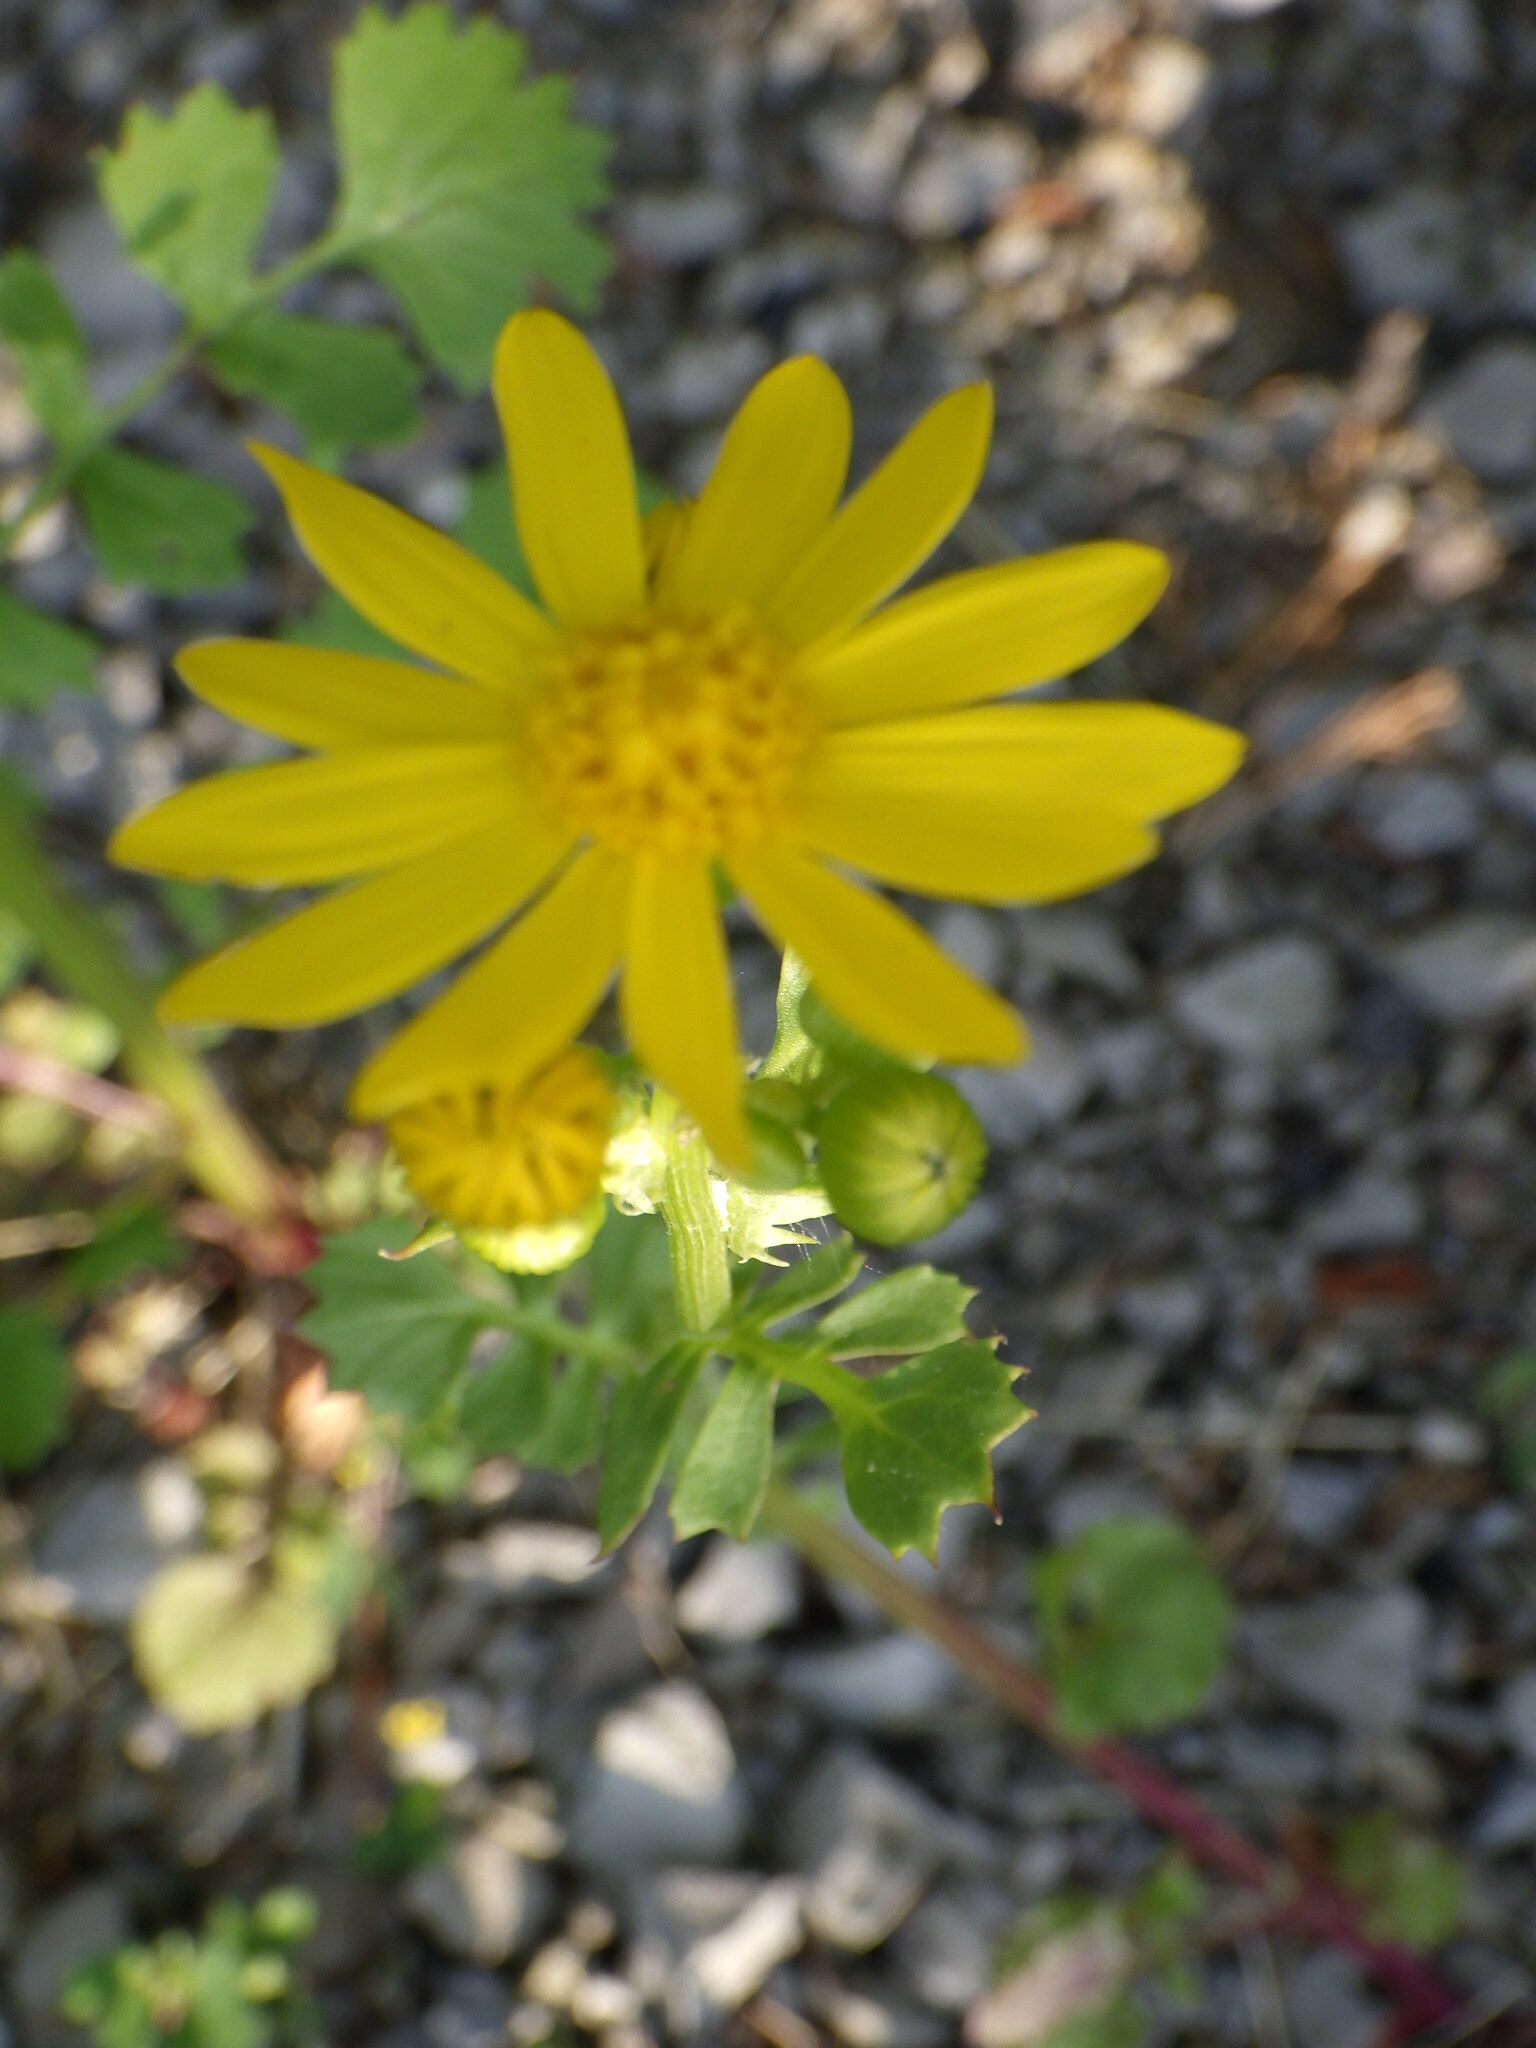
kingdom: Plantae
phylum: Tracheophyta
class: Magnoliopsida
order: Asterales
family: Asteraceae
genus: Packera
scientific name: Packera glabella
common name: Butterweed
